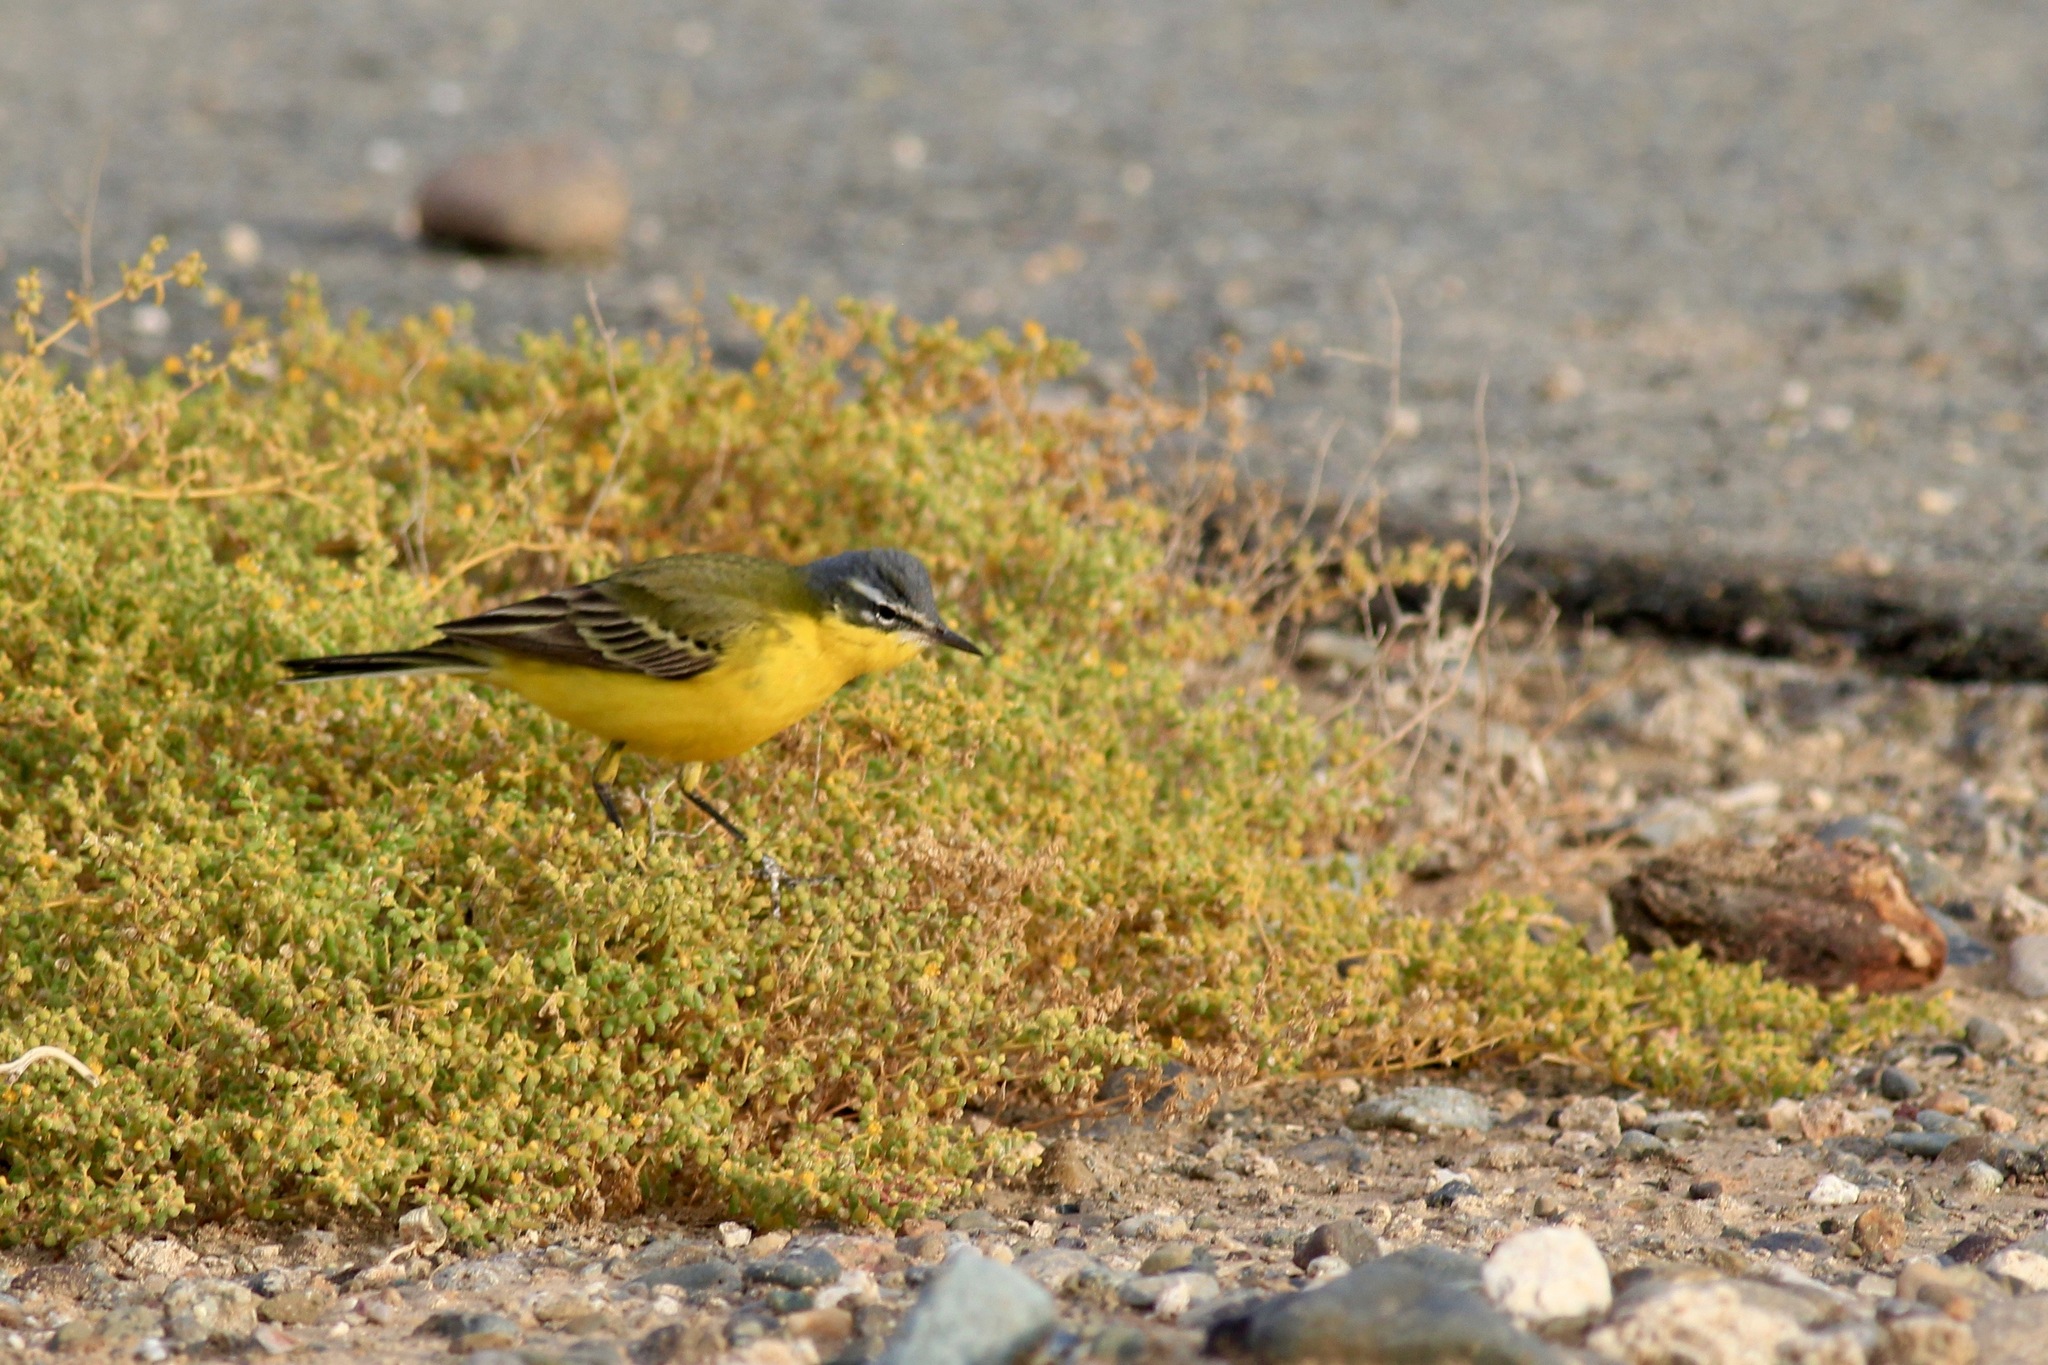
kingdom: Animalia
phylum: Chordata
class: Aves
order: Passeriformes
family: Motacillidae
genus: Motacilla
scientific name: Motacilla flava
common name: Western yellow wagtail
